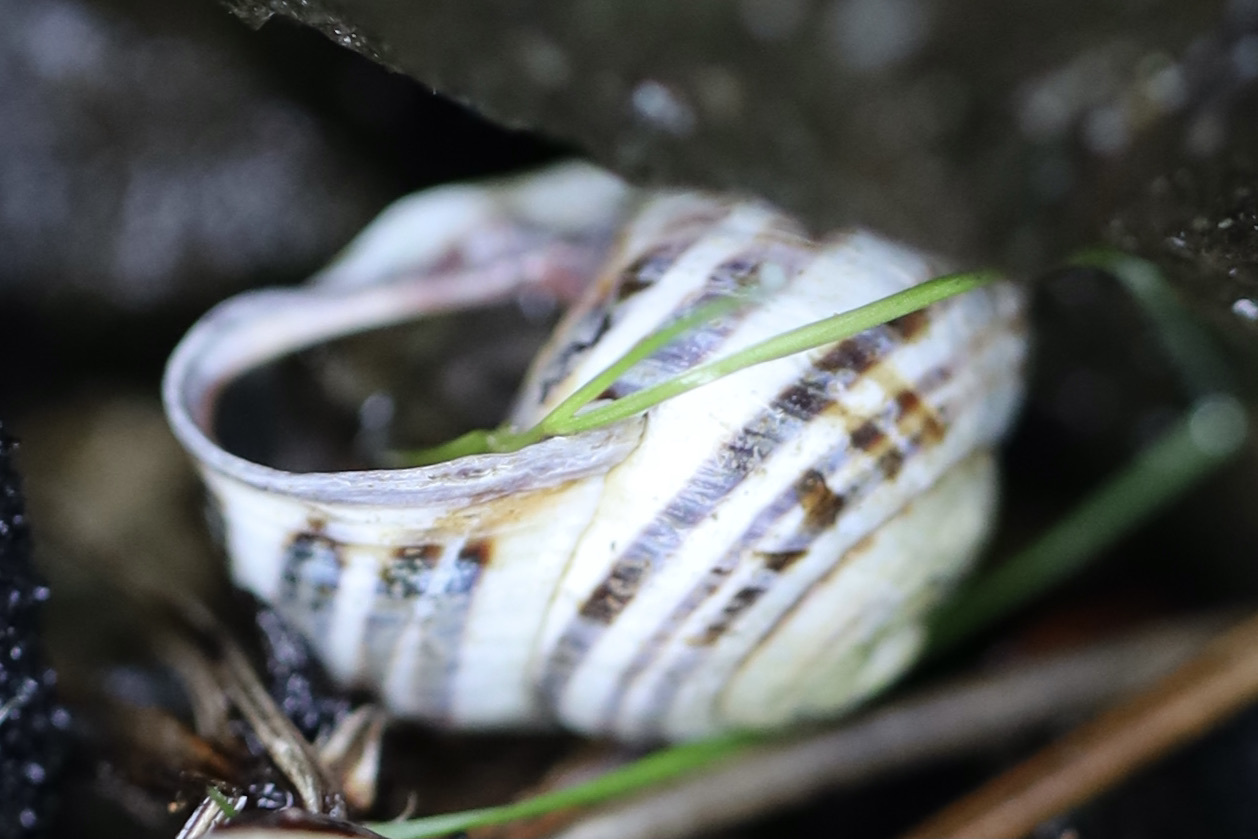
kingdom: Animalia
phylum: Mollusca
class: Gastropoda
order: Stylommatophora
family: Helicidae
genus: Cepaea
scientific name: Cepaea nemoralis
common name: Grovesnail
